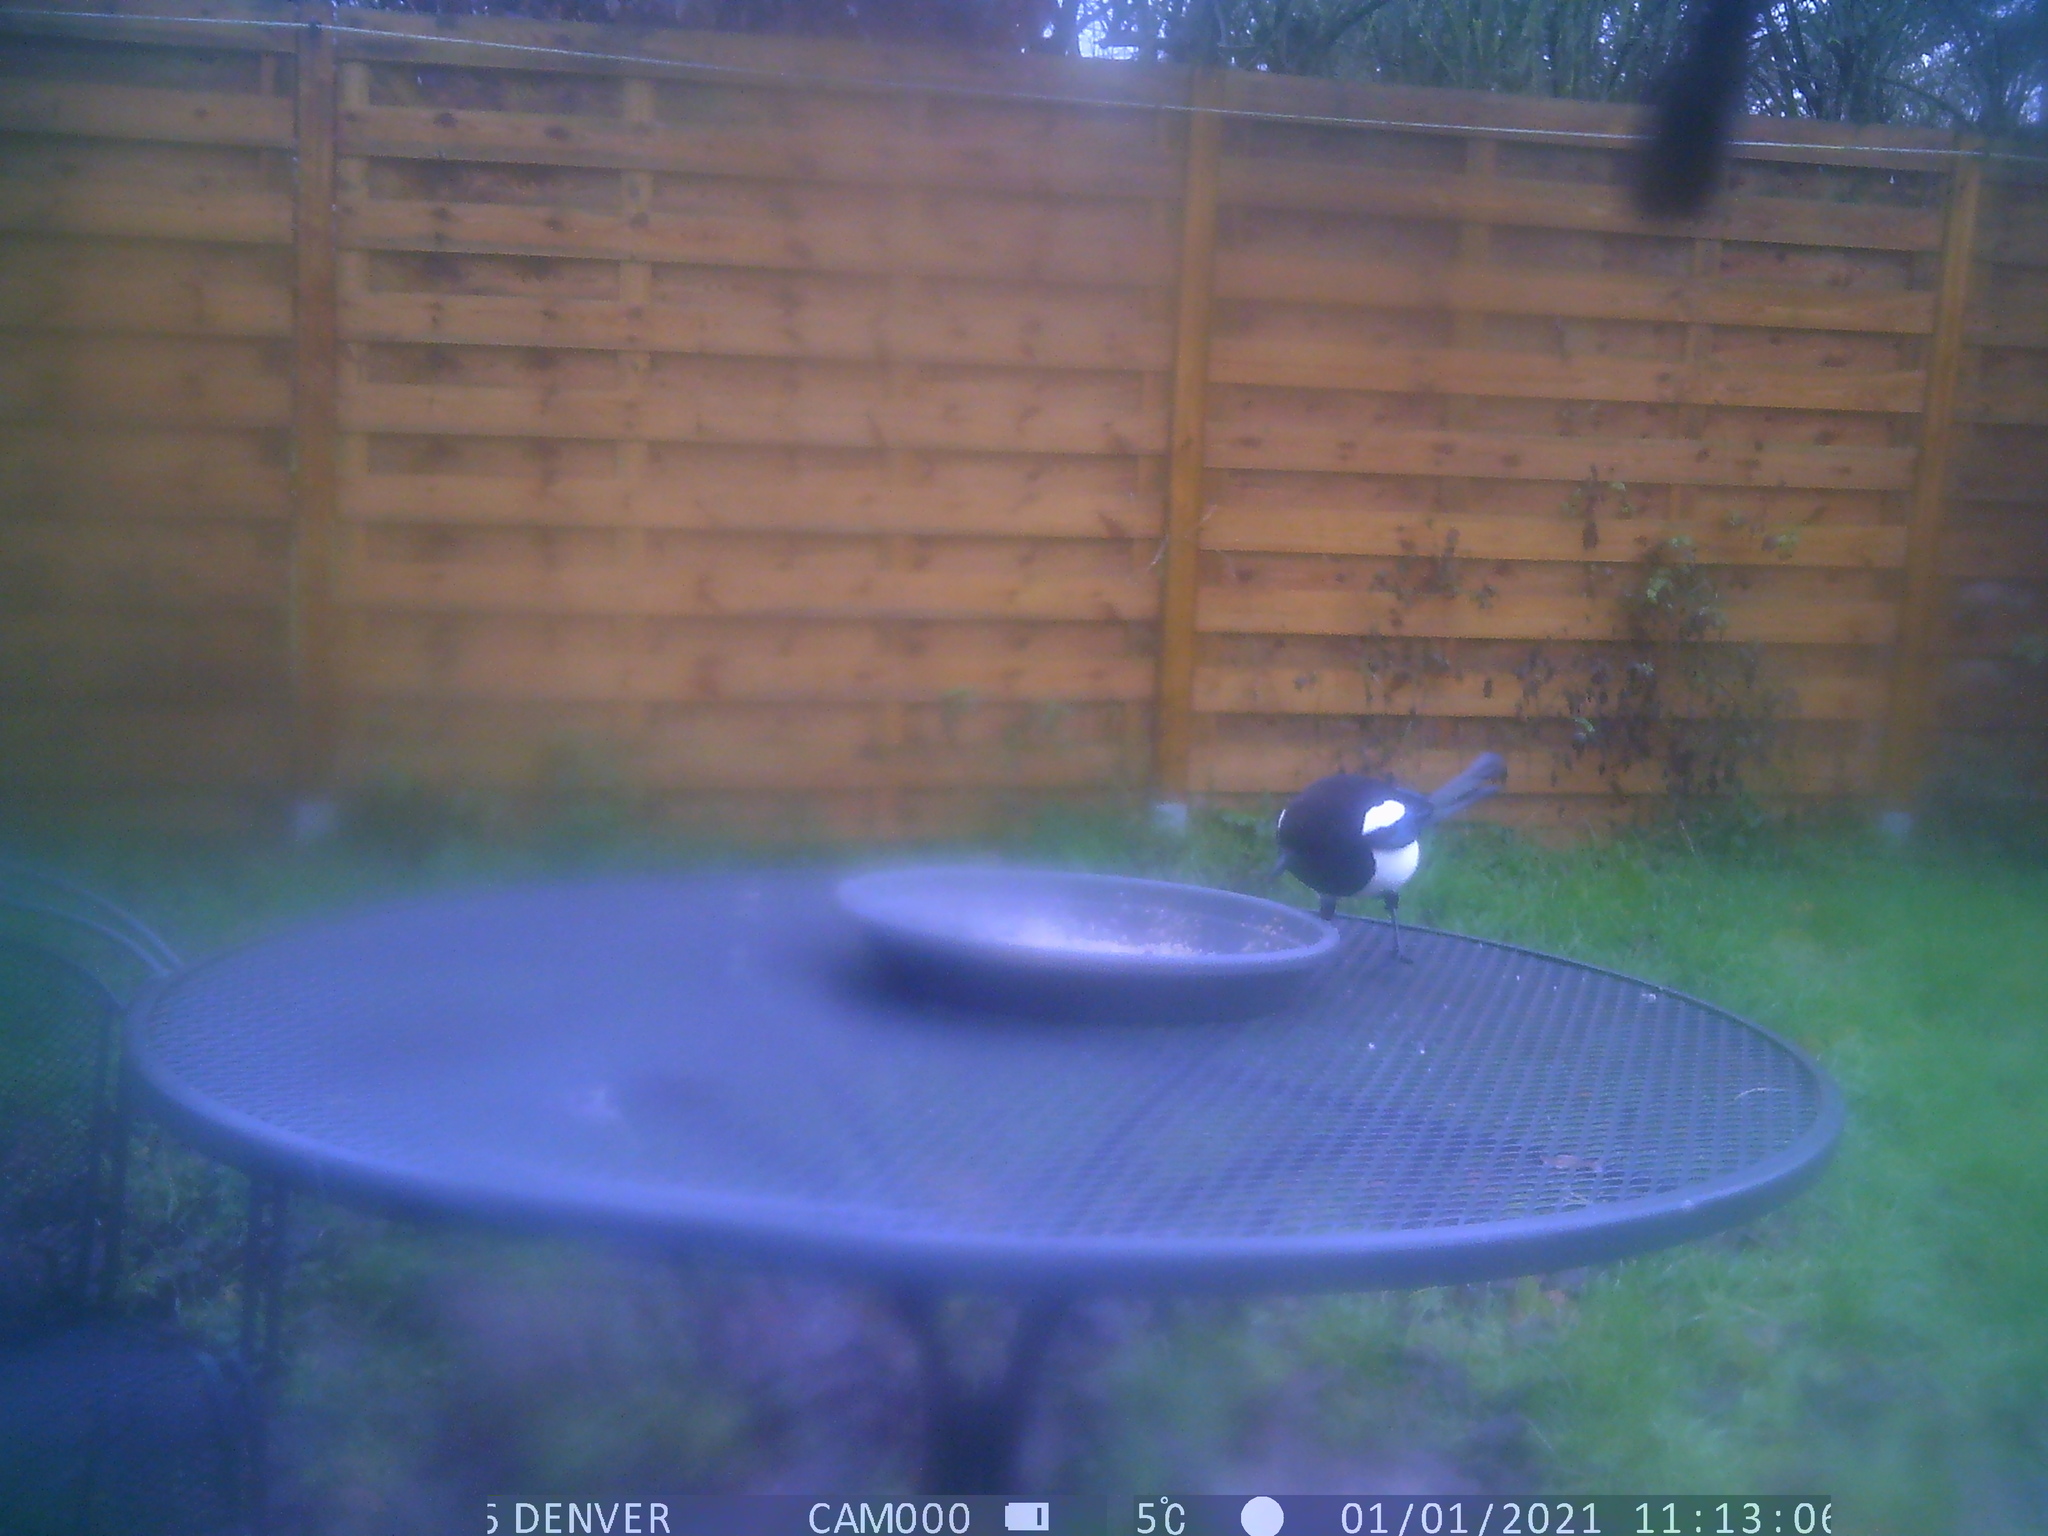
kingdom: Animalia
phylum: Chordata
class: Aves
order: Passeriformes
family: Corvidae
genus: Pica
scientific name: Pica pica
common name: Eurasian magpie
